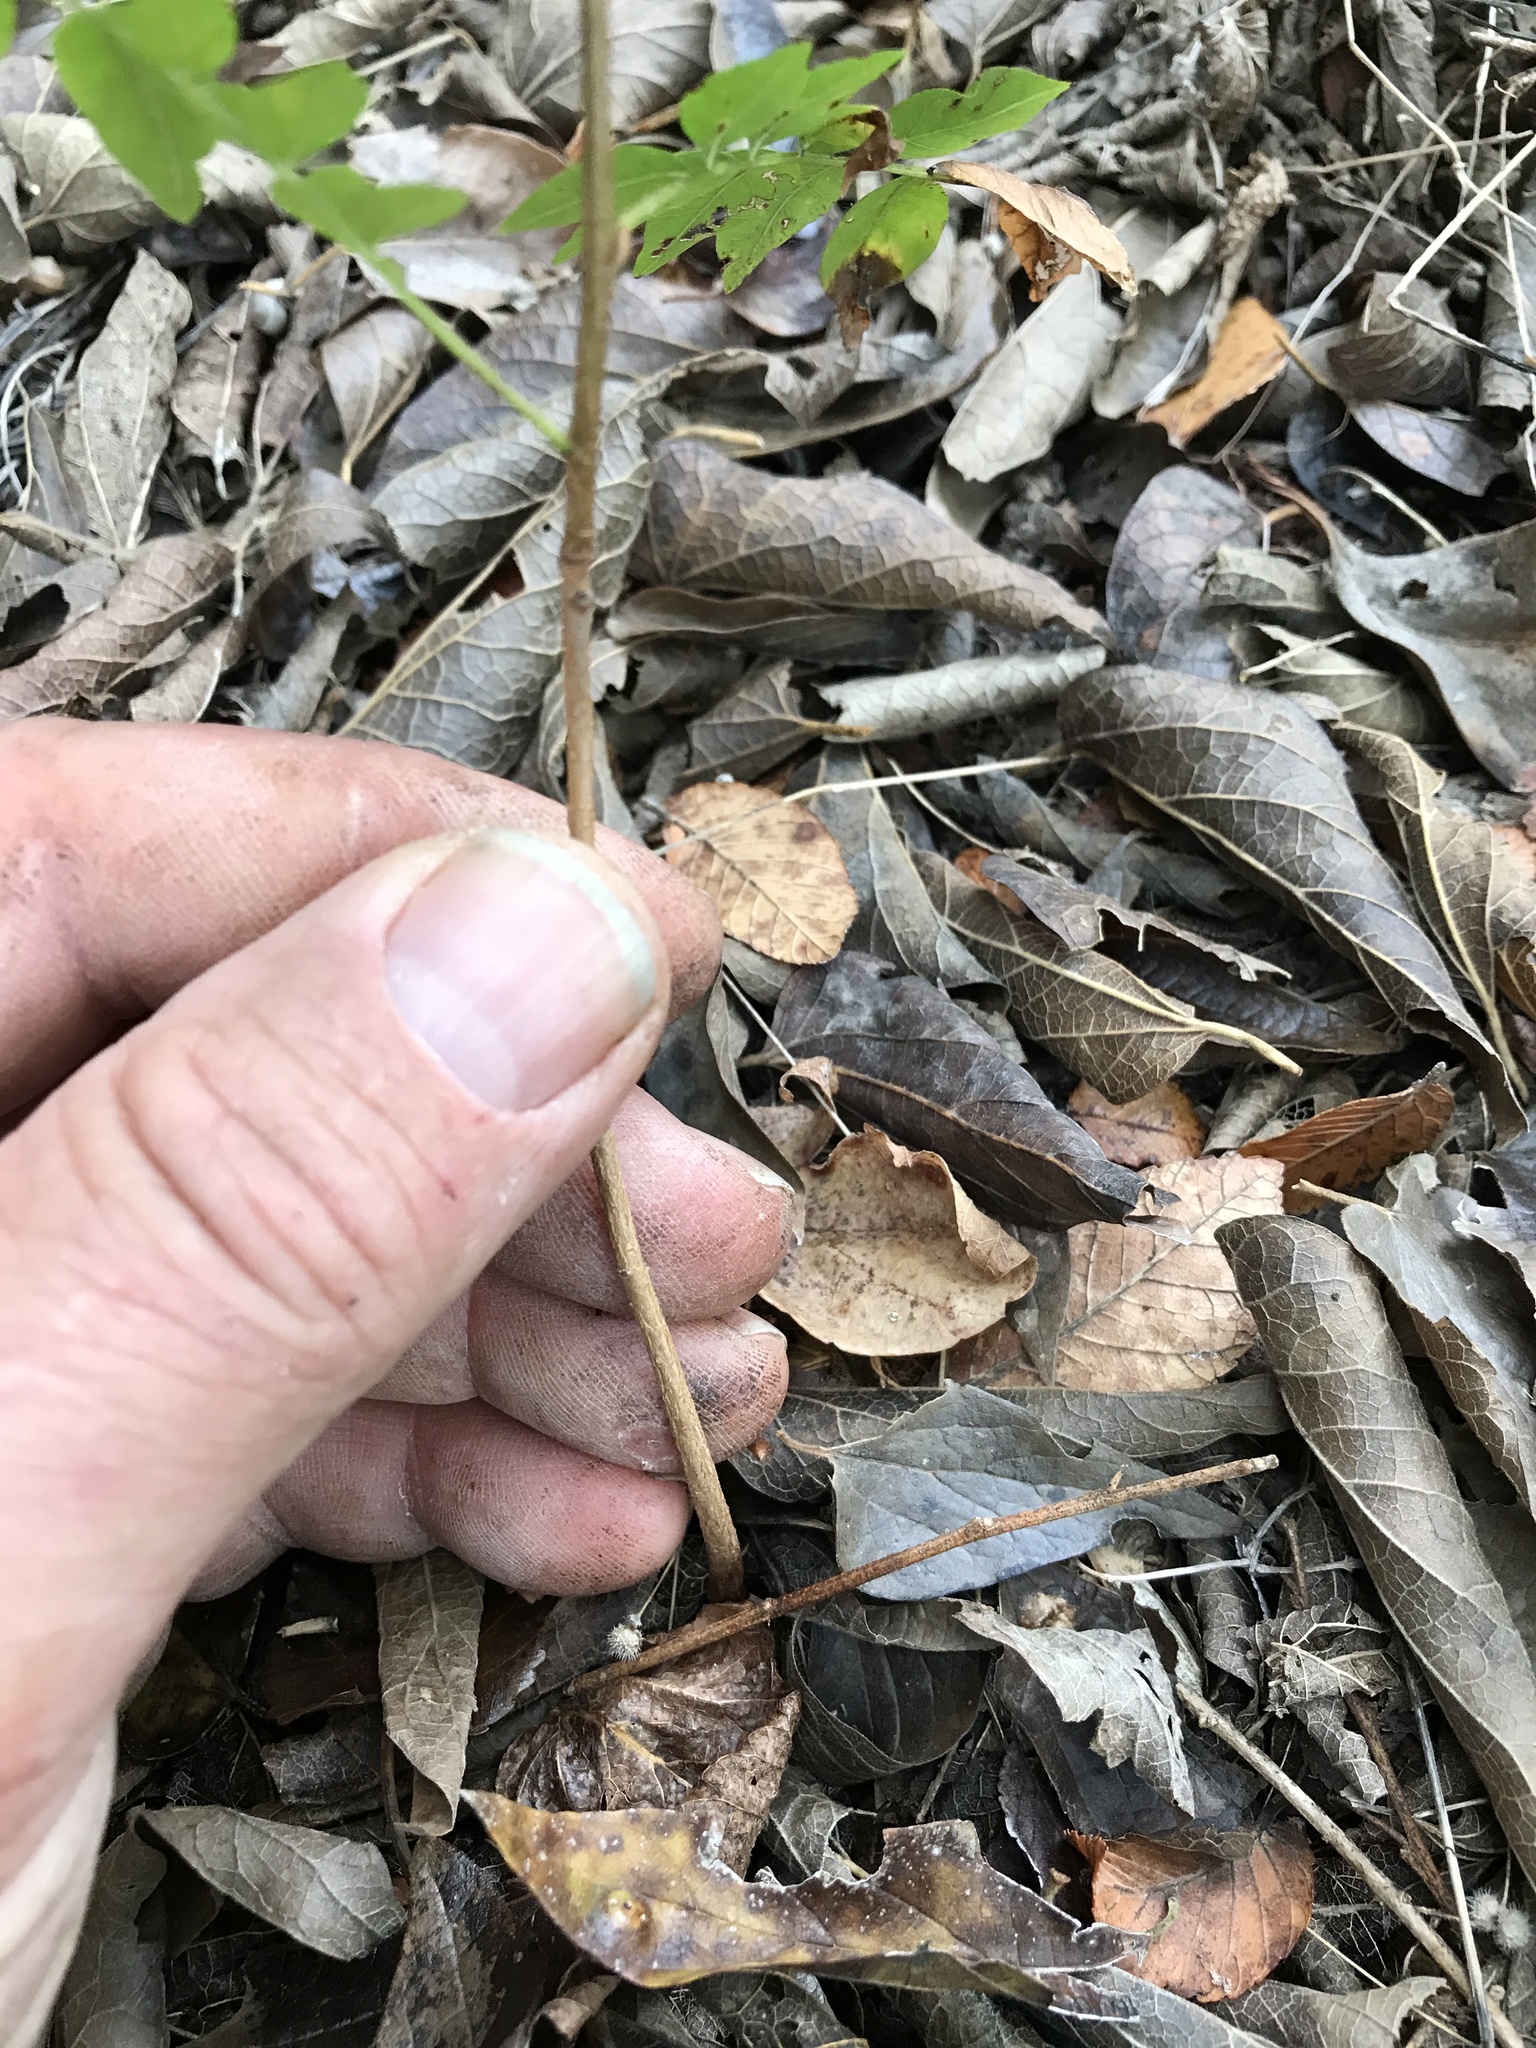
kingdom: Plantae
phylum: Tracheophyta
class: Magnoliopsida
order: Sapindales
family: Anacardiaceae
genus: Pistacia
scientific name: Pistacia chinensis
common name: Chinese pistache
